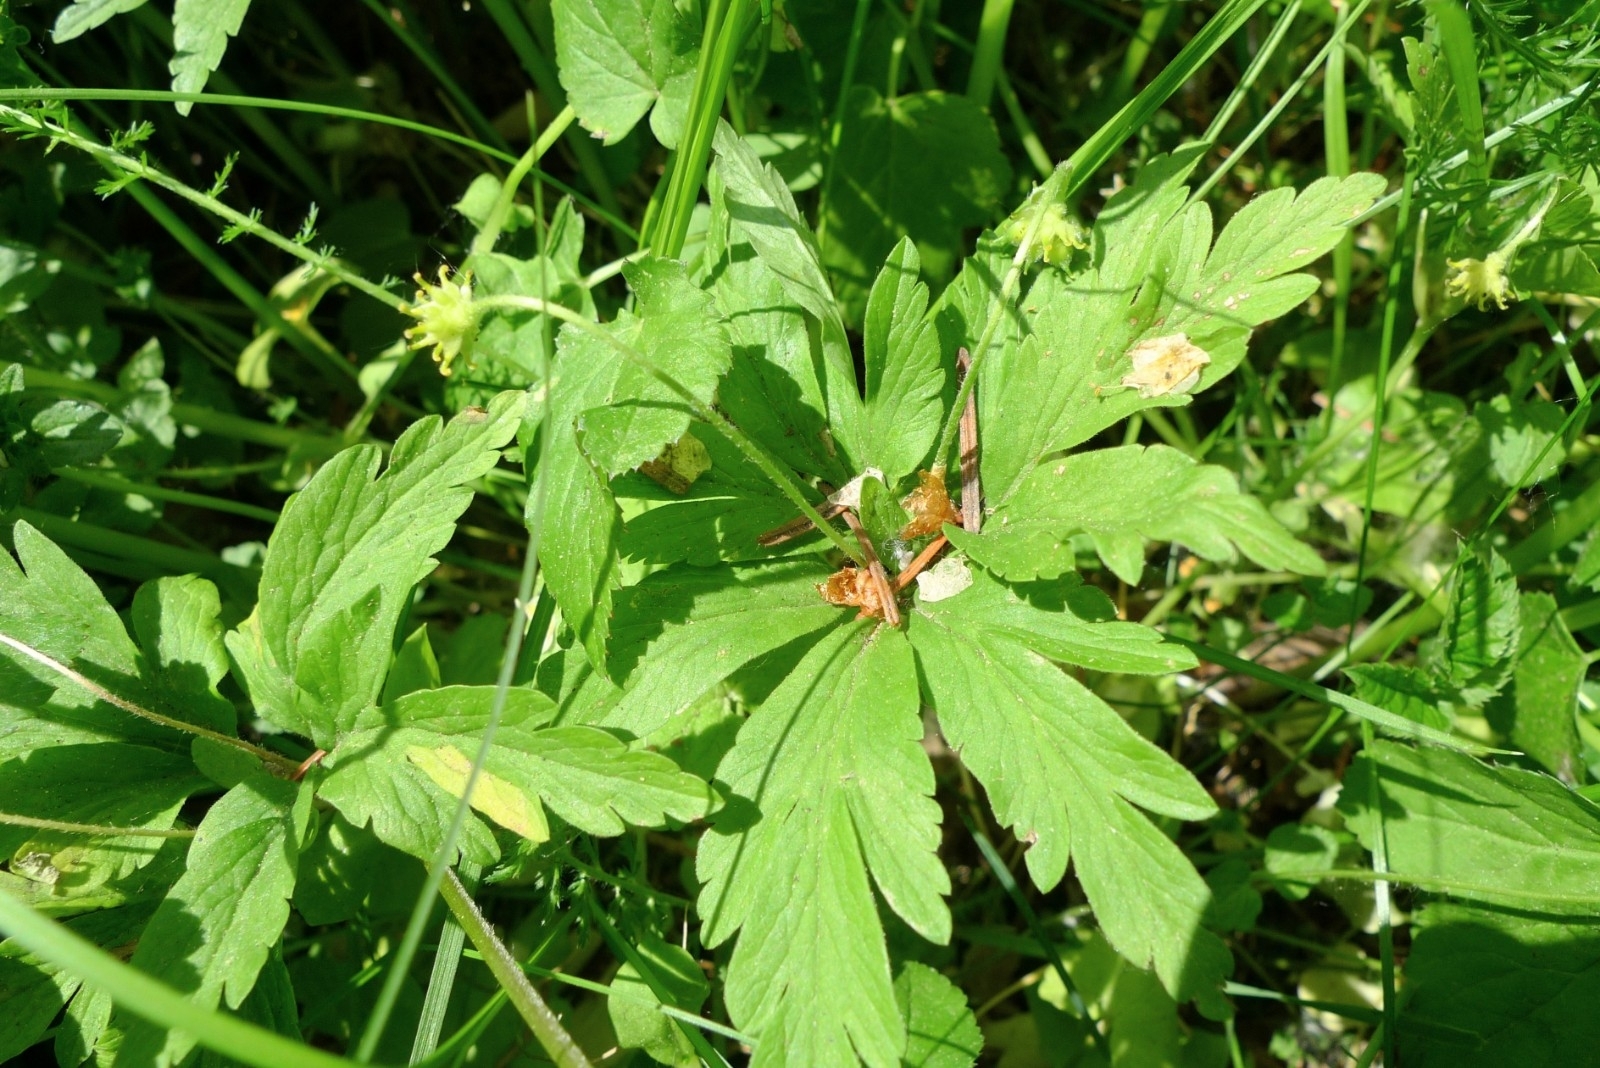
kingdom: Plantae
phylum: Tracheophyta
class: Magnoliopsida
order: Ranunculales
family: Ranunculaceae
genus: Anemone
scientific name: Anemone ranunculoides
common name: Yellow anemone
